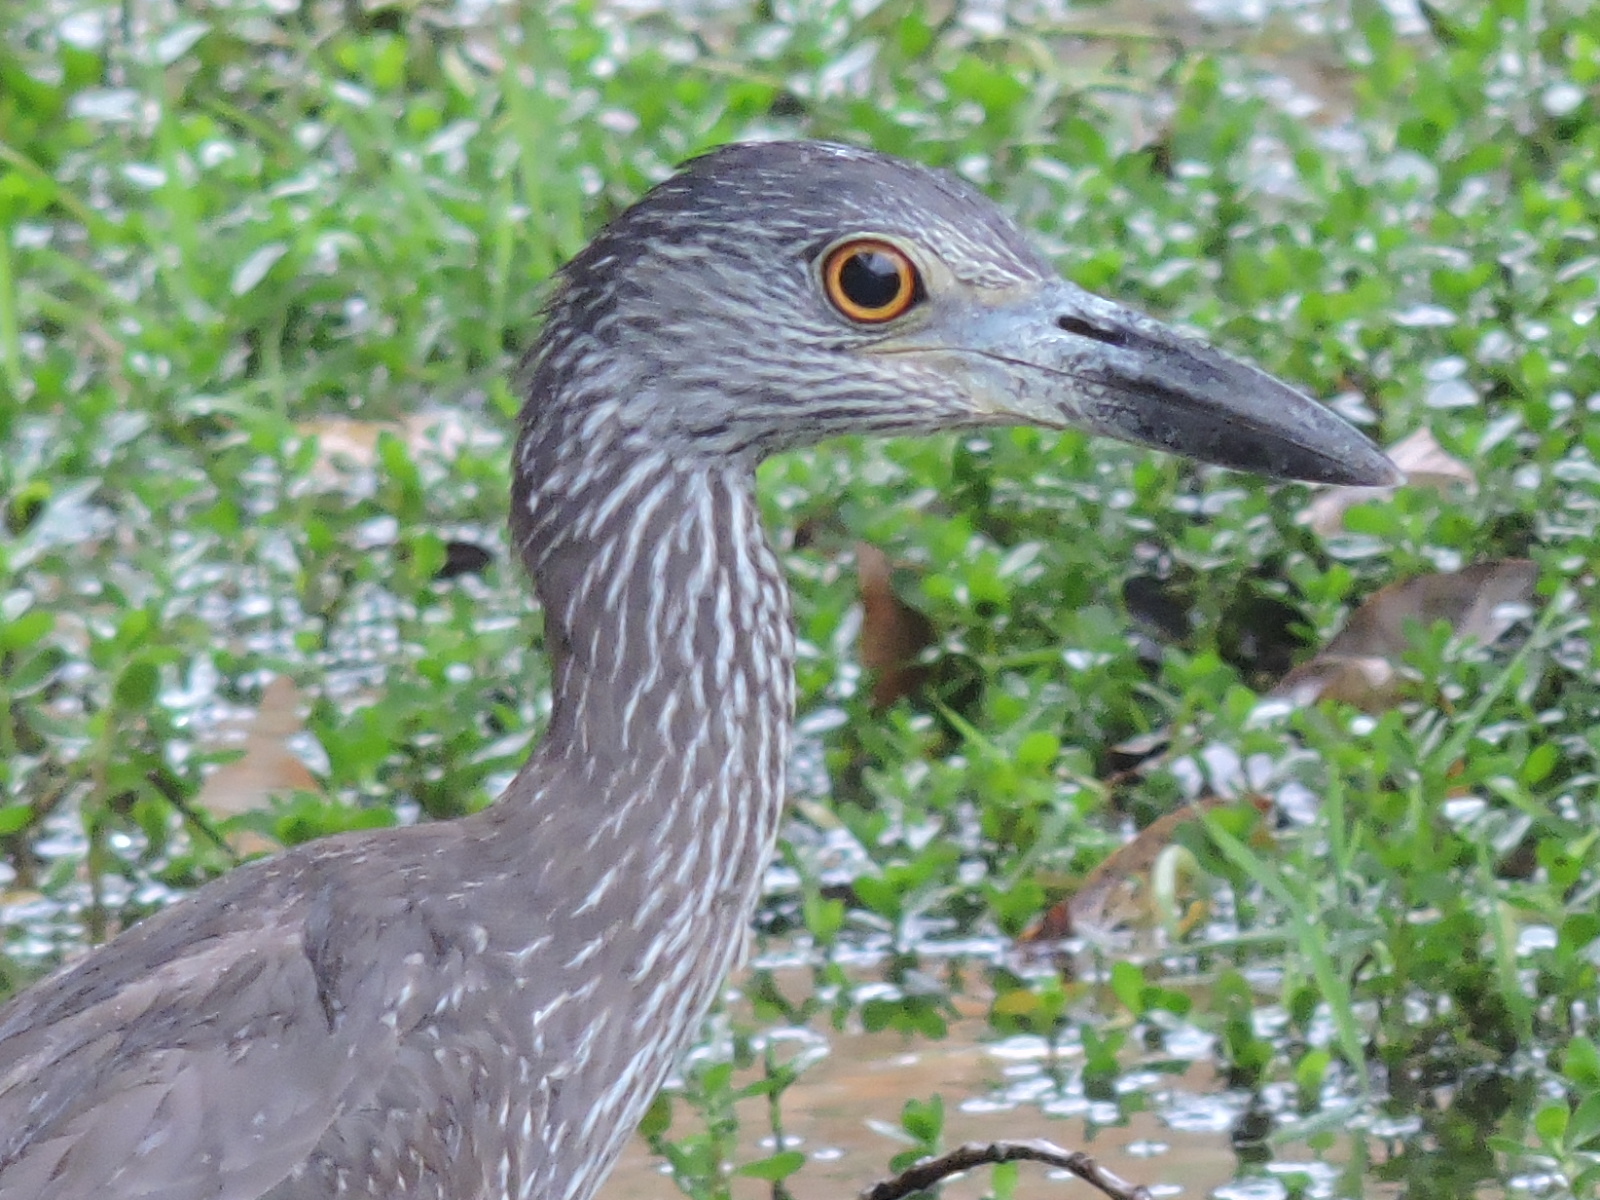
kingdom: Animalia
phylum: Chordata
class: Aves
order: Pelecaniformes
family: Ardeidae
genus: Nyctanassa
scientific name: Nyctanassa violacea
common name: Yellow-crowned night heron
